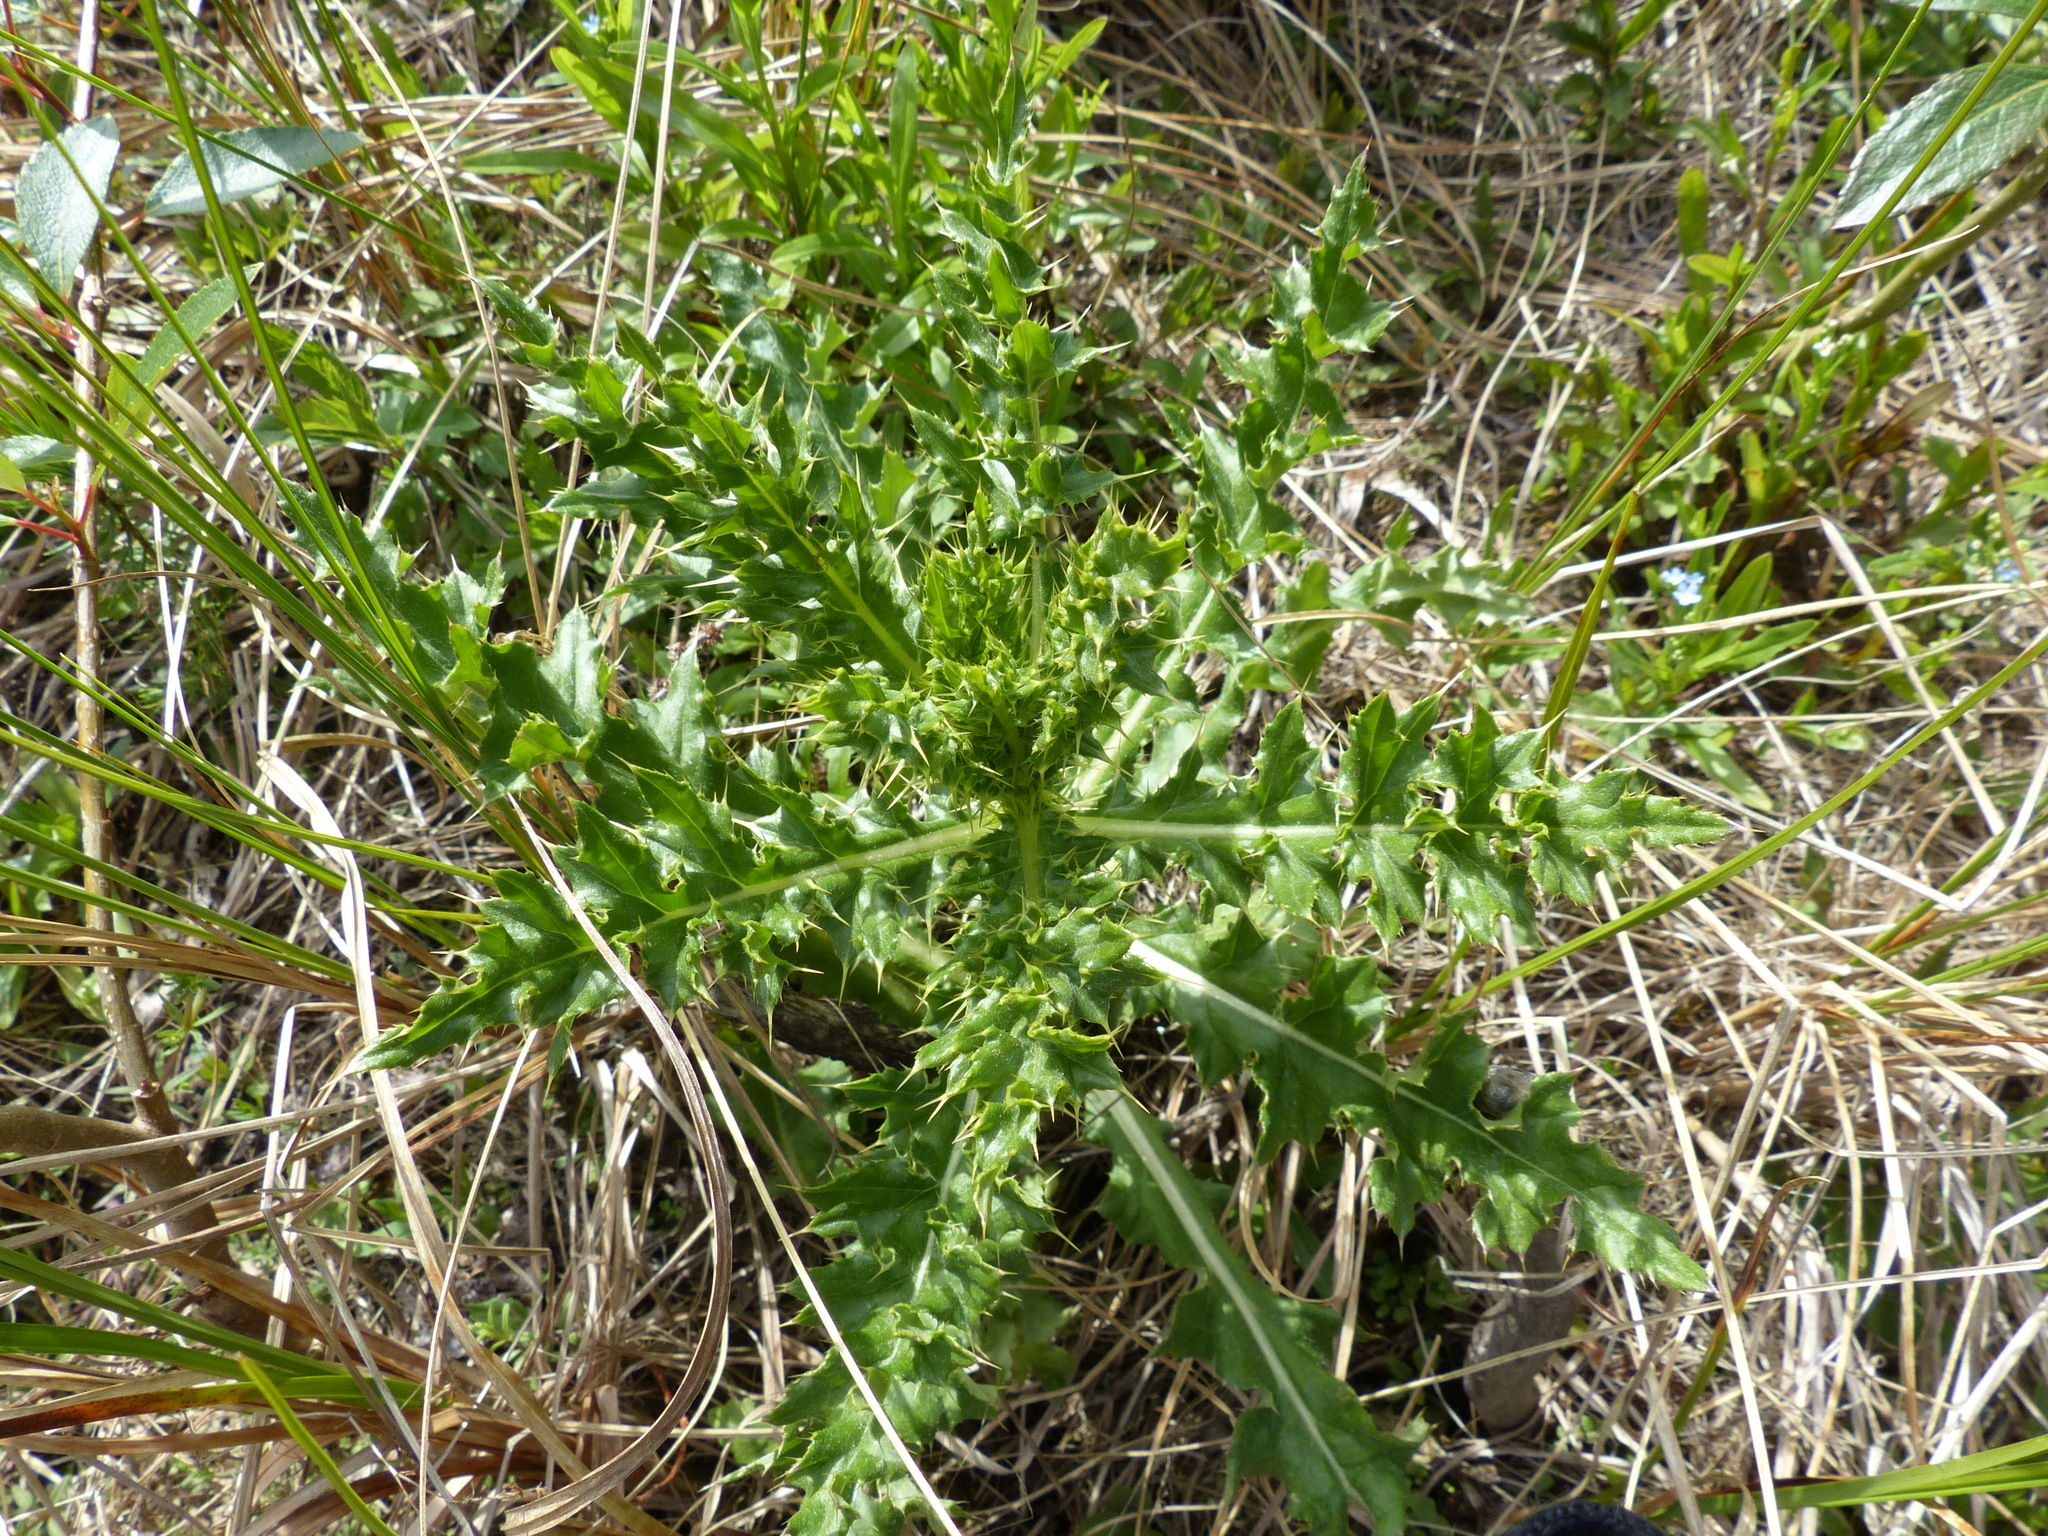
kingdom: Plantae
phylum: Tracheophyta
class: Magnoliopsida
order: Asterales
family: Asteraceae
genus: Cirsium
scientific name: Cirsium arvense
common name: Creeping thistle
